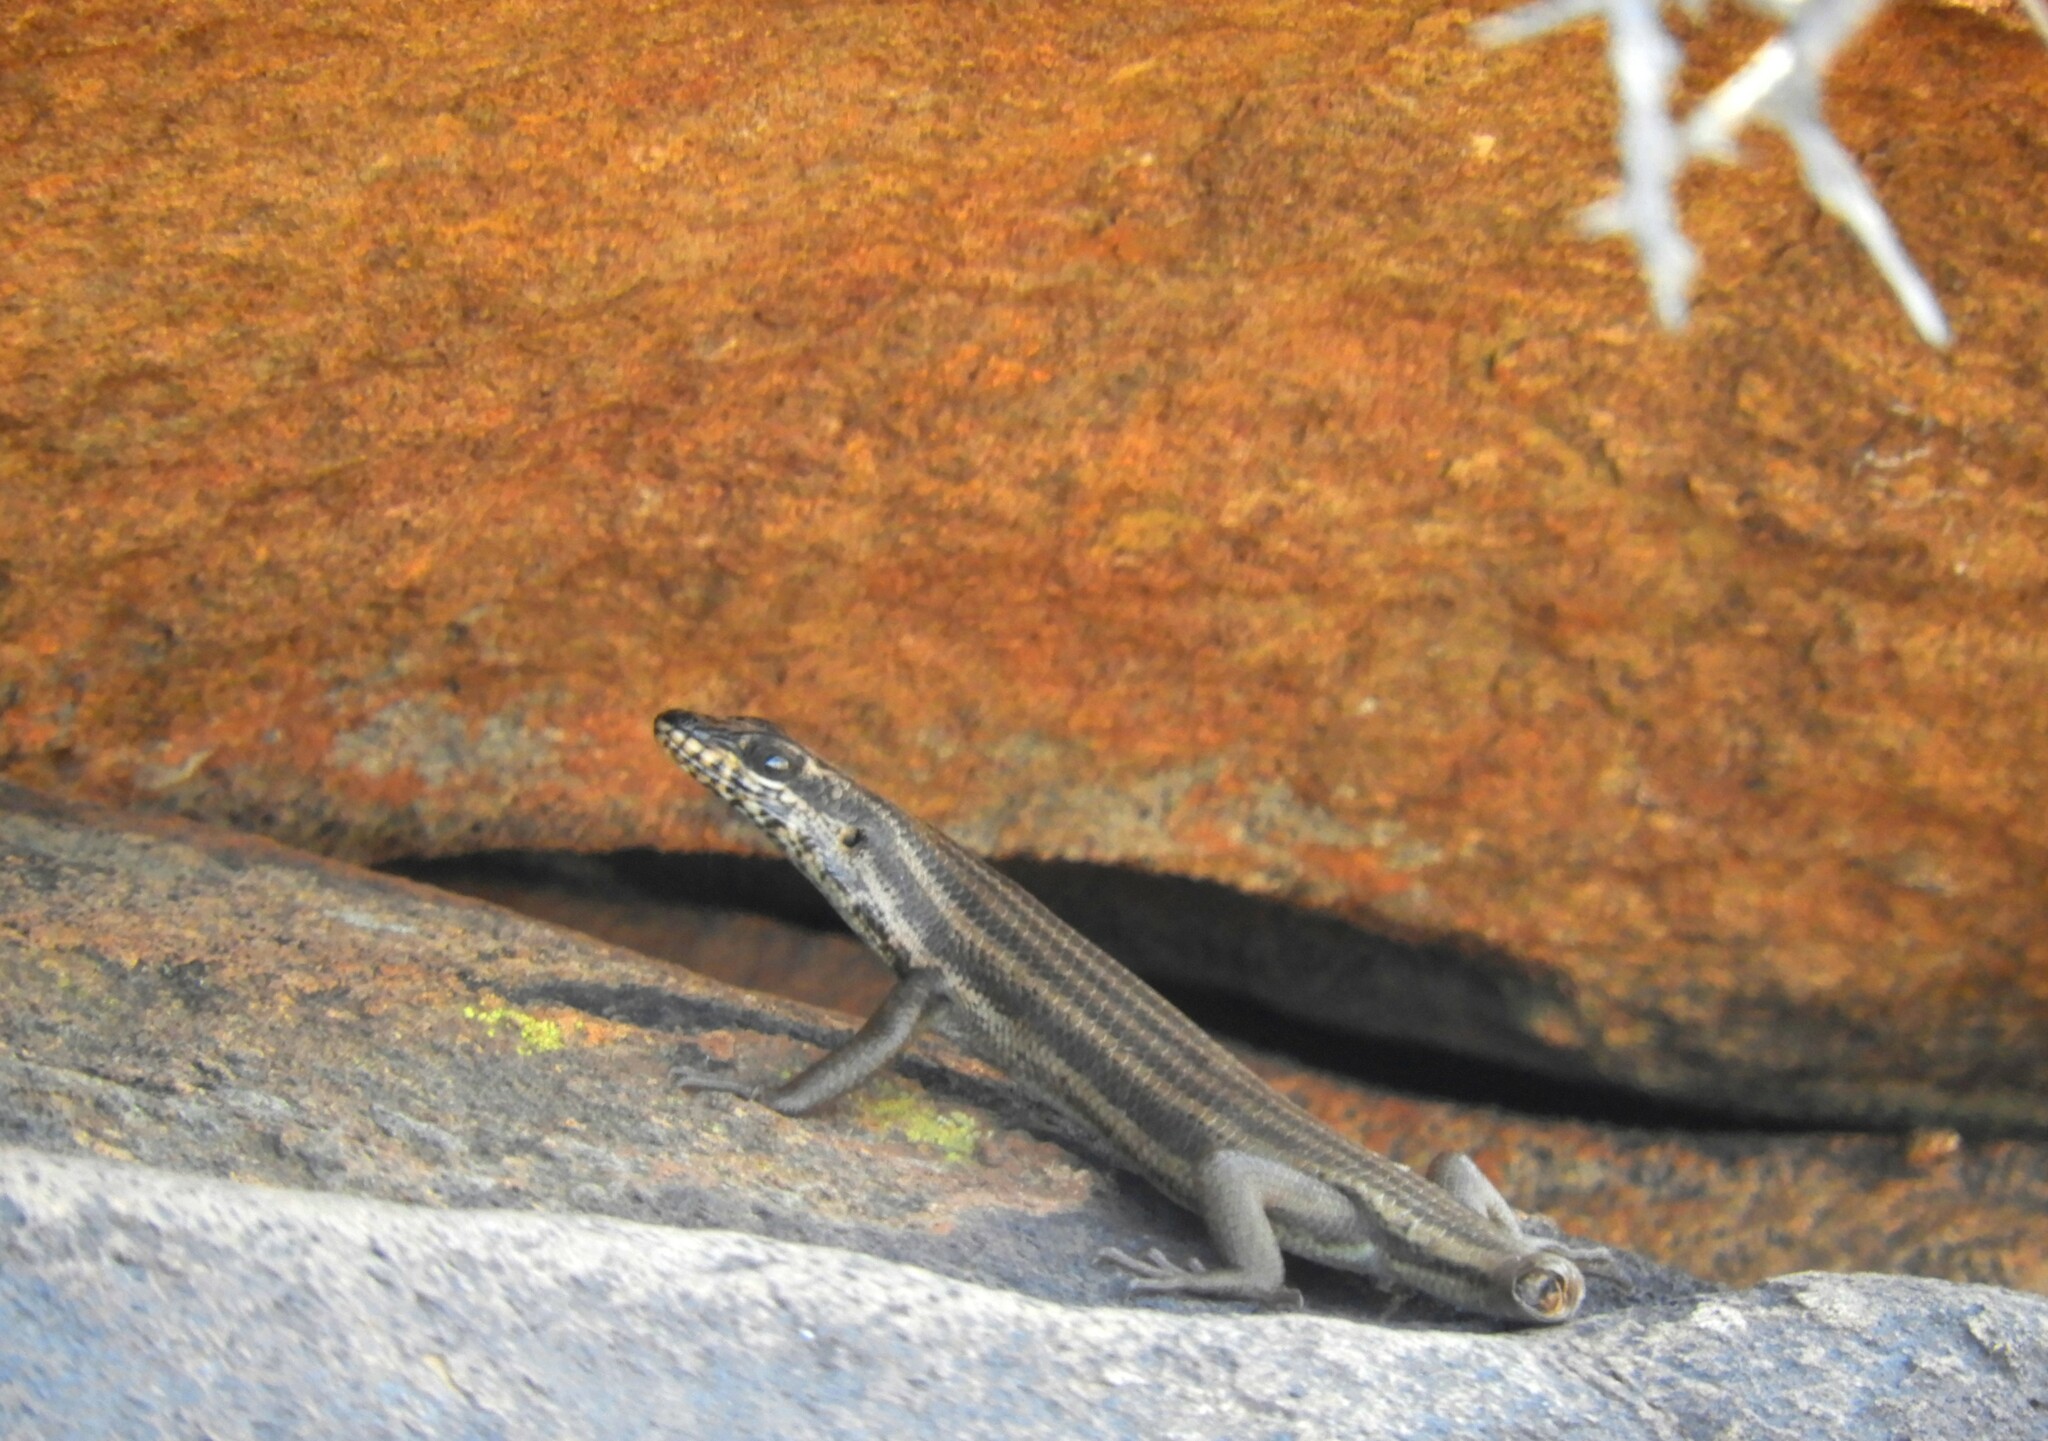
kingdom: Animalia
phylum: Chordata
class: Squamata
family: Scincidae
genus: Trachylepis
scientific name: Trachylepis sulcata
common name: Western rock skink
